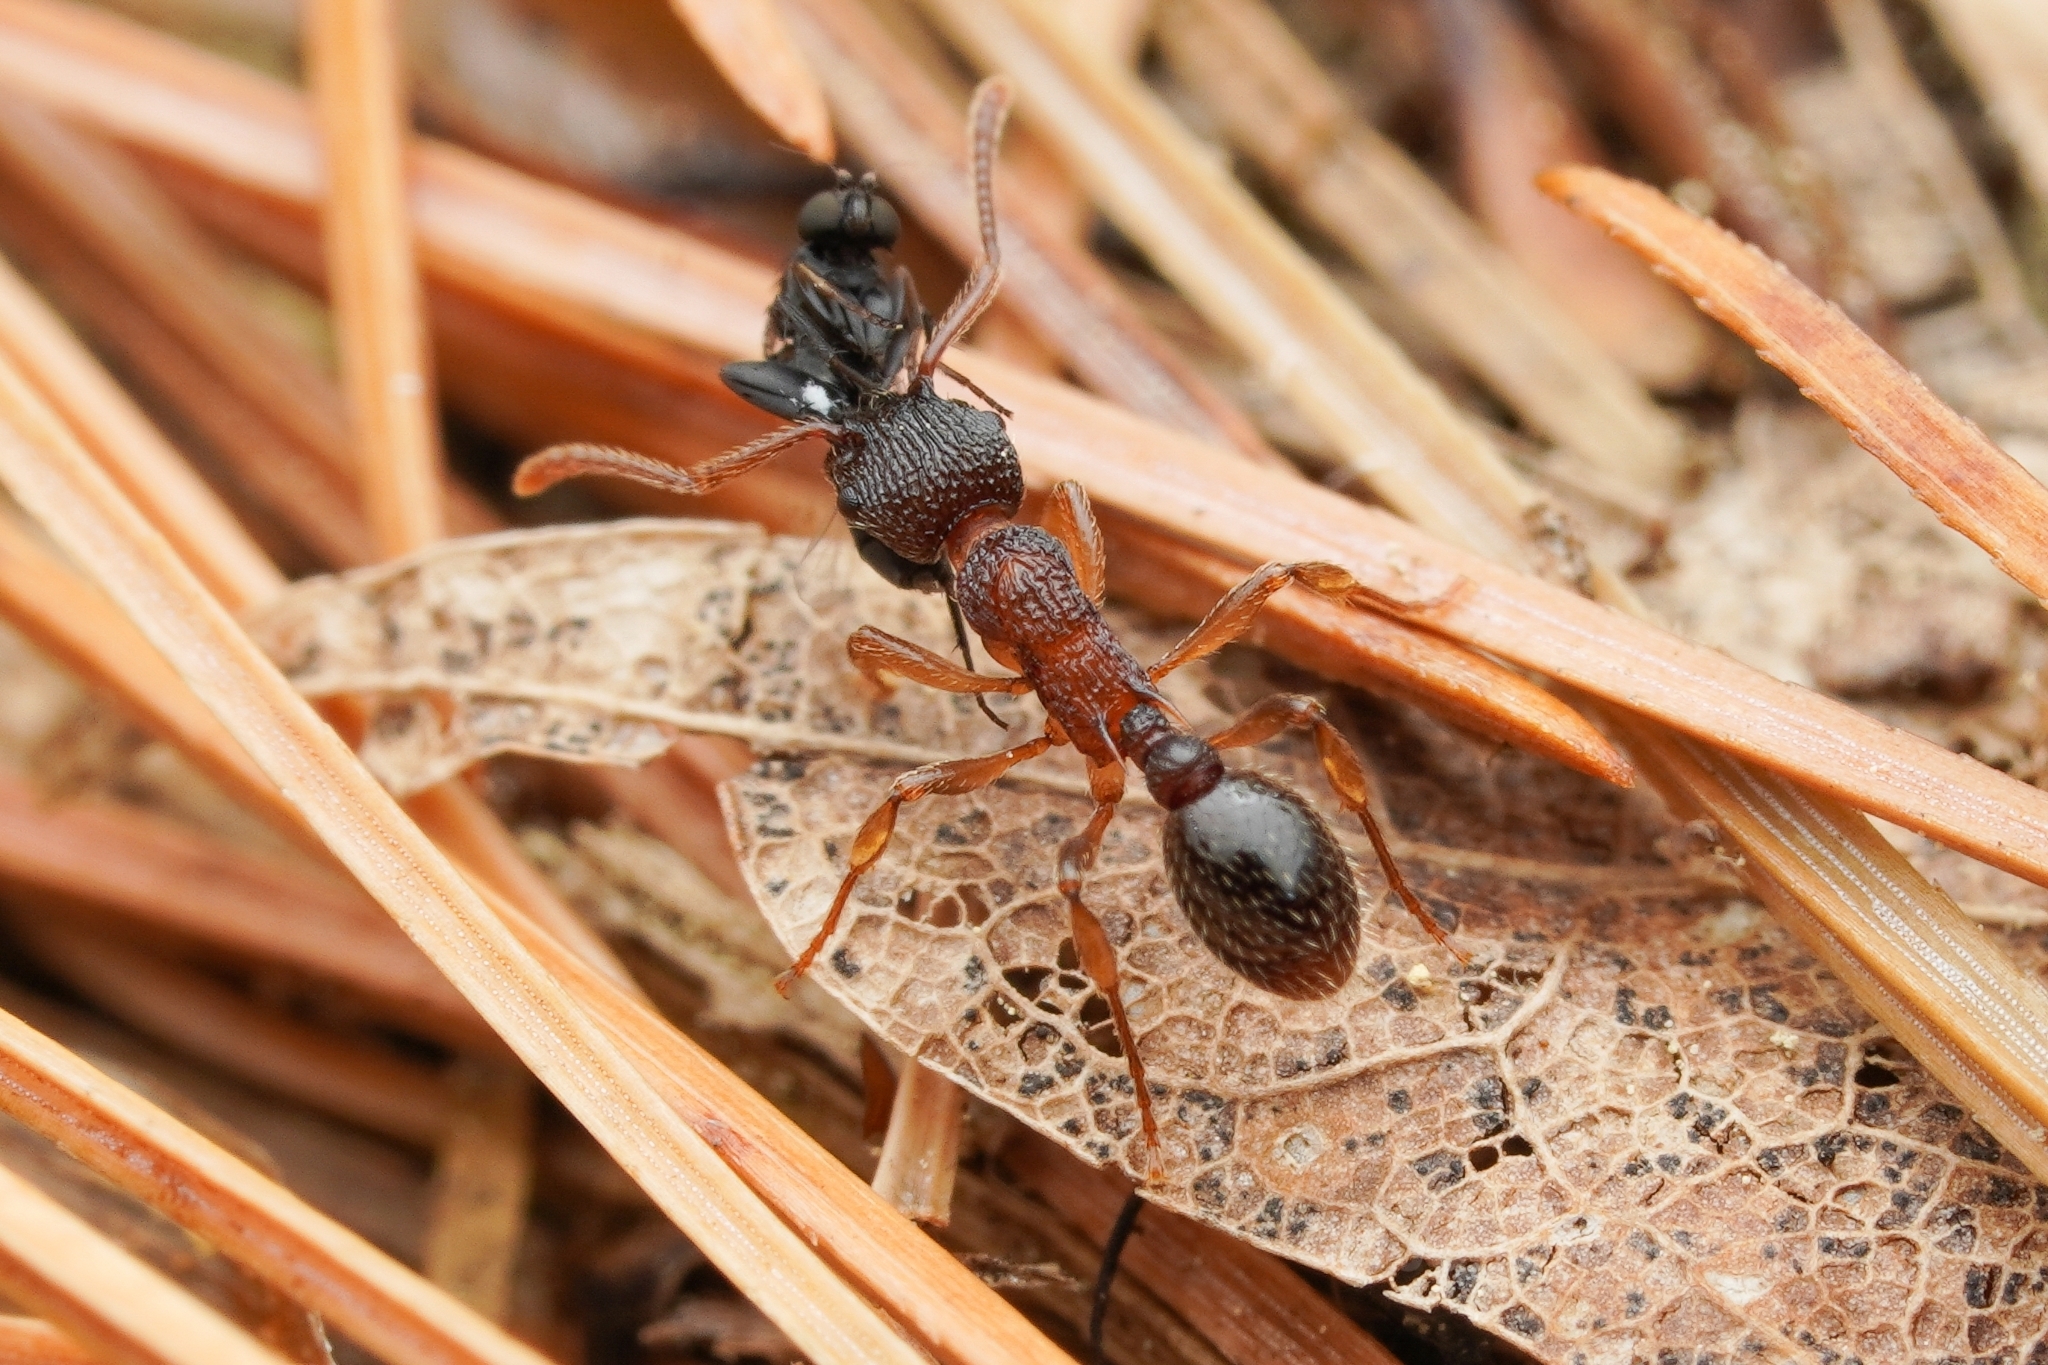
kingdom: Animalia
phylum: Arthropoda
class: Insecta
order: Hymenoptera
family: Formicidae
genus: Myrmica
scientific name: Myrmica punctiventris
